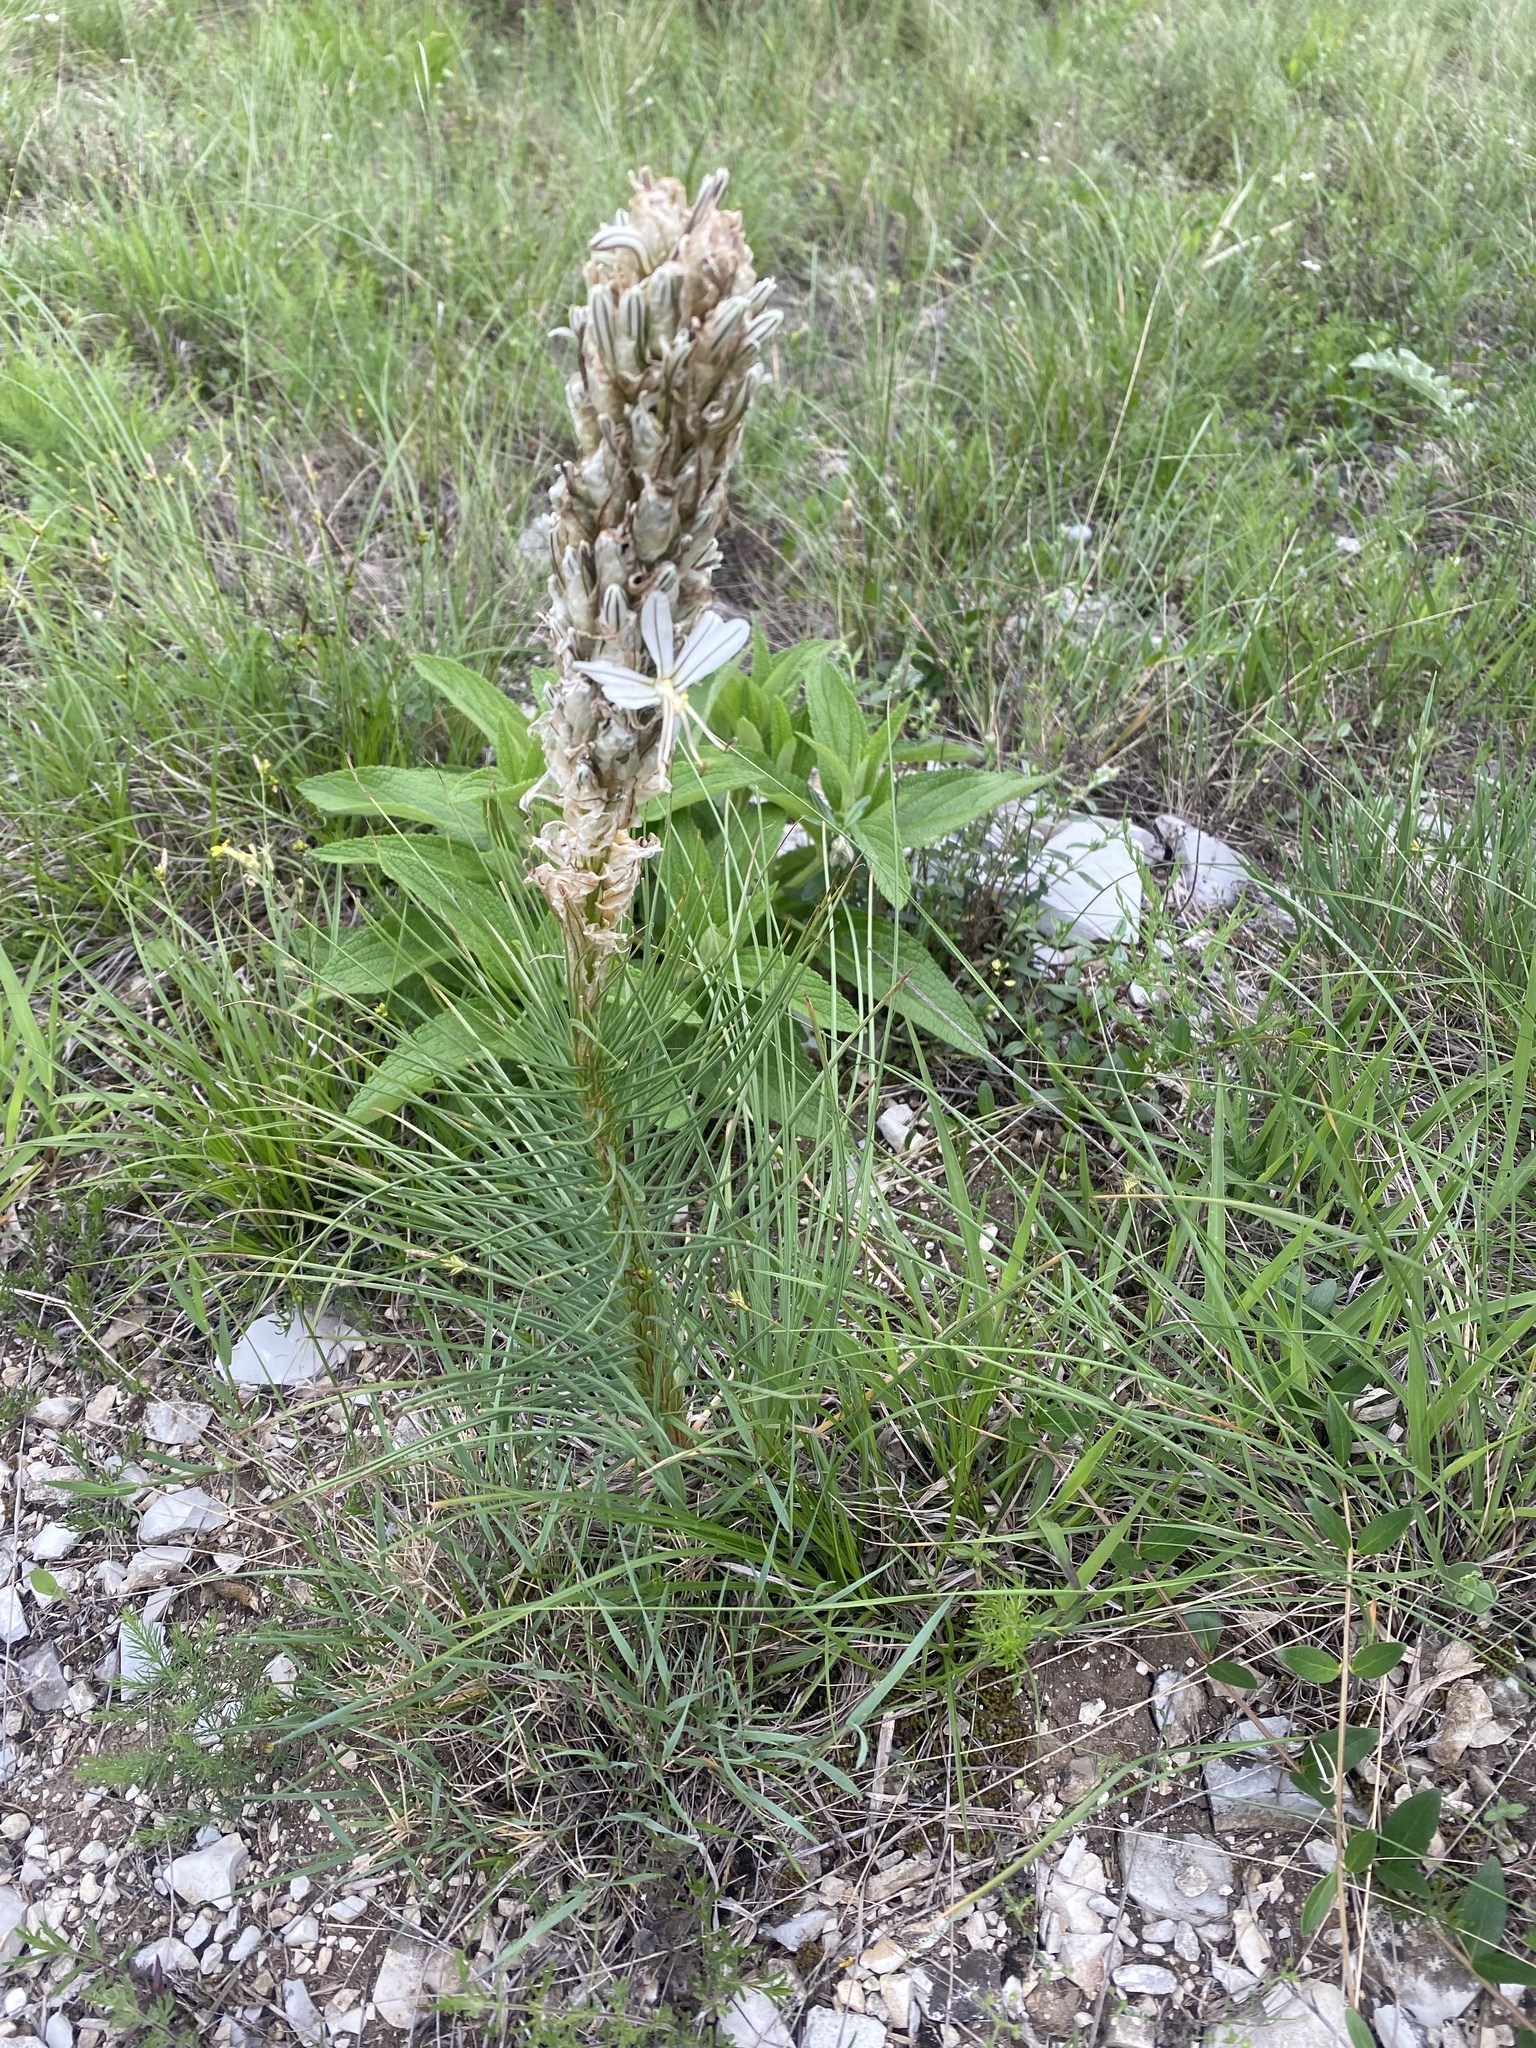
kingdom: Plantae
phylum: Tracheophyta
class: Liliopsida
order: Asparagales
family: Asphodelaceae
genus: Asphodeline
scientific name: Asphodeline taurica
